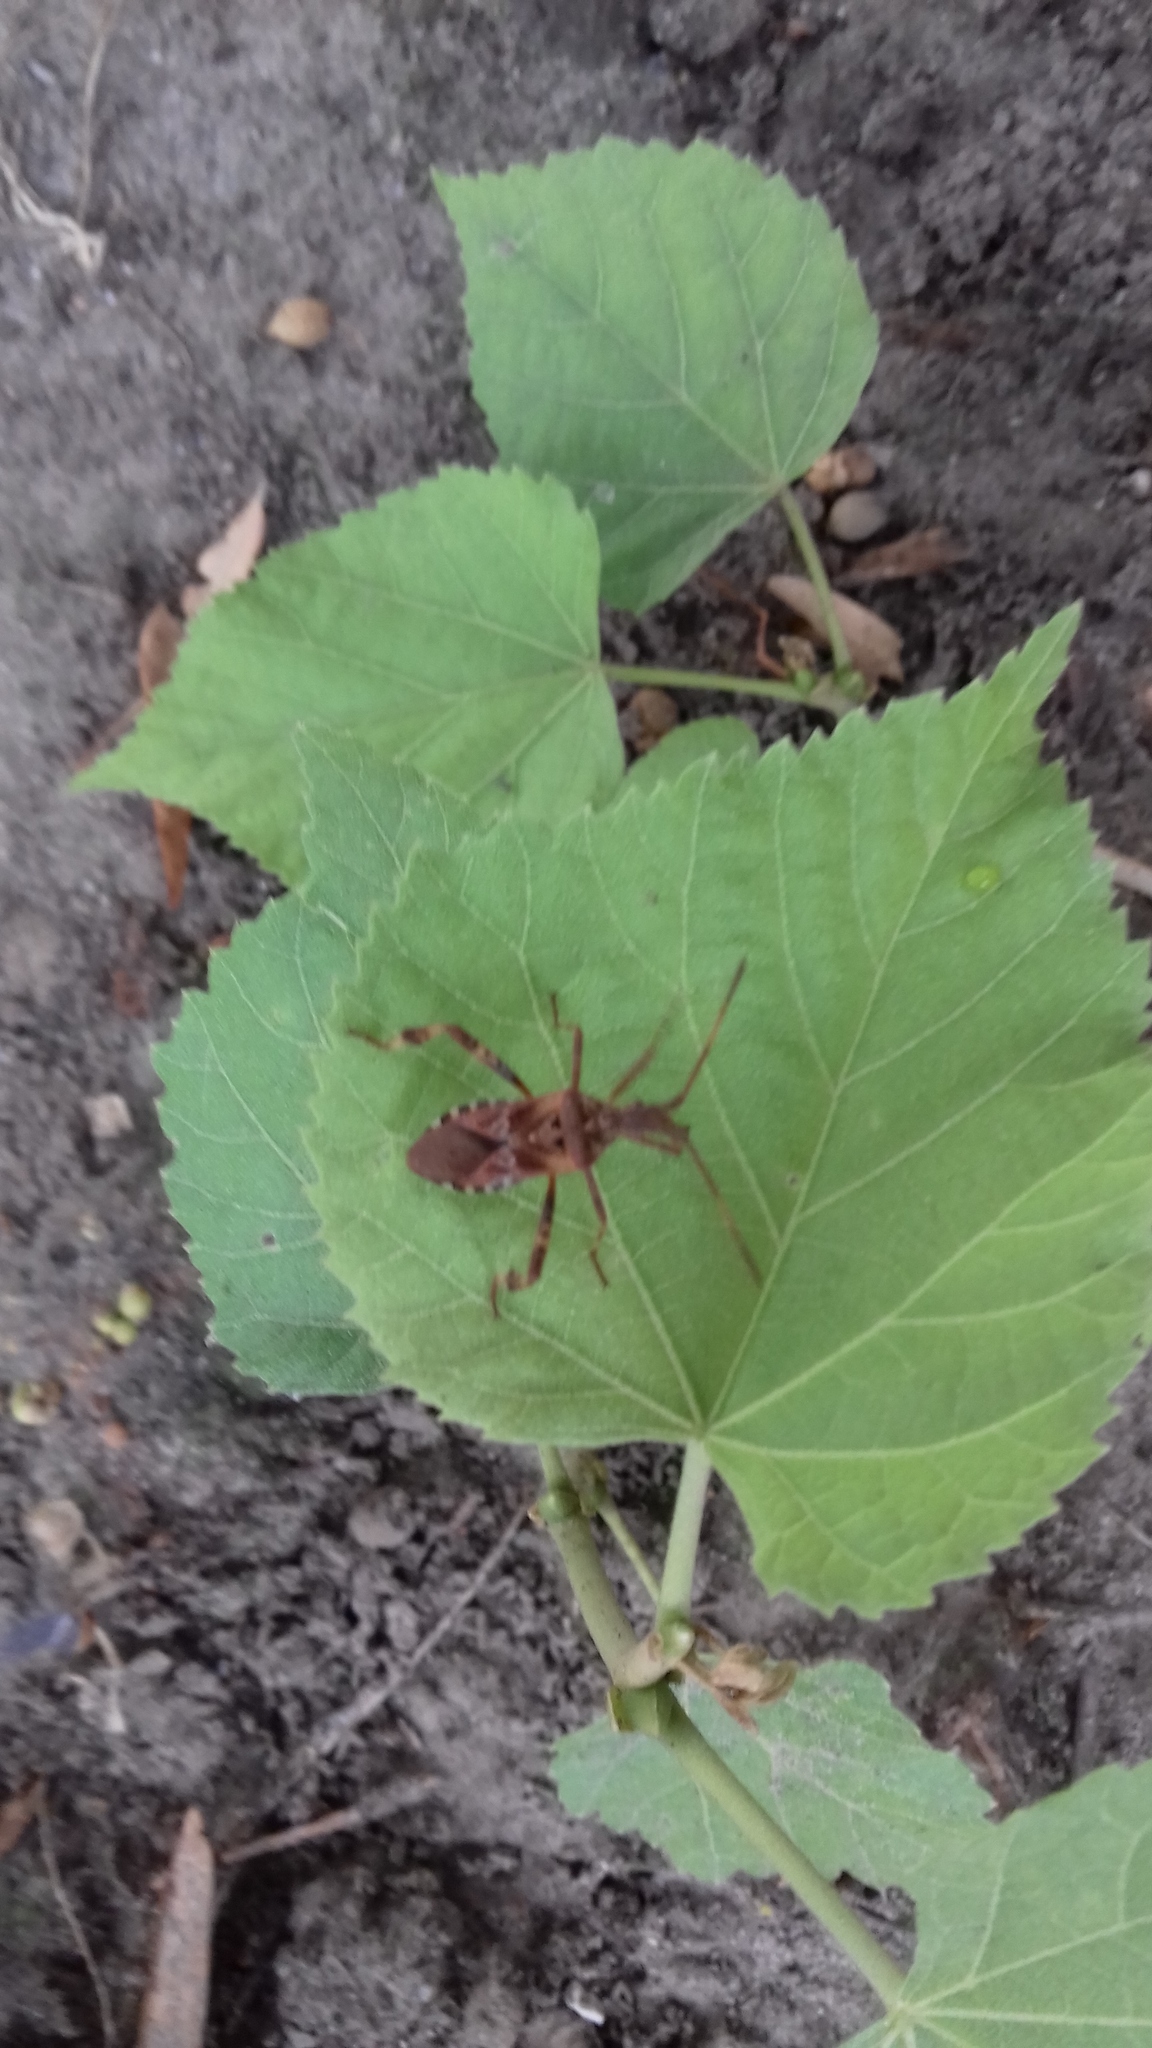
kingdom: Animalia
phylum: Arthropoda
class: Insecta
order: Hemiptera
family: Coreidae
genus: Leptoglossus
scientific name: Leptoglossus occidentalis
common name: Western conifer-seed bug
